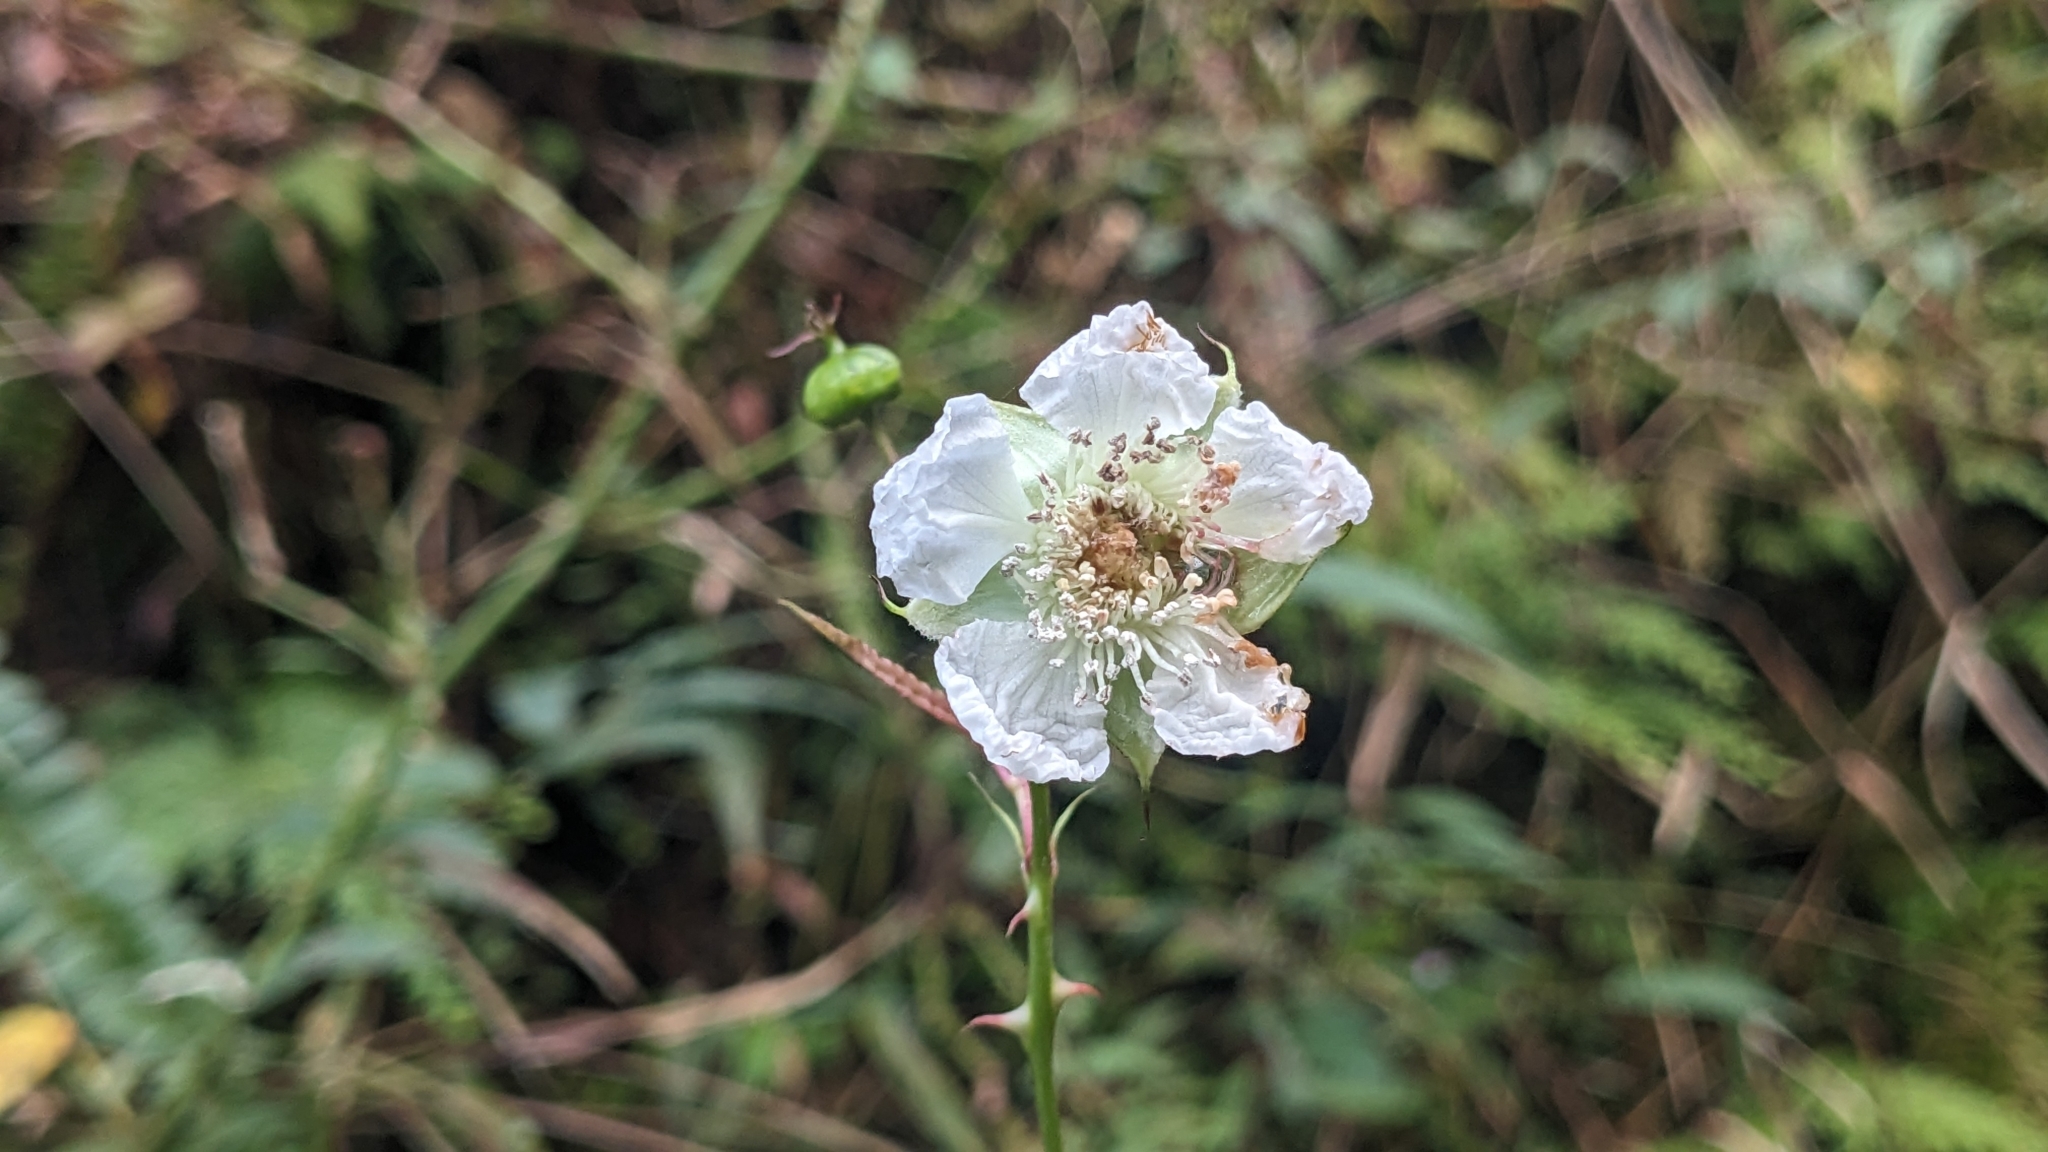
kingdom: Plantae
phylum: Tracheophyta
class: Magnoliopsida
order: Rosales
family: Rosaceae
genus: Rubus
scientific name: Rubus linearifoliolus
